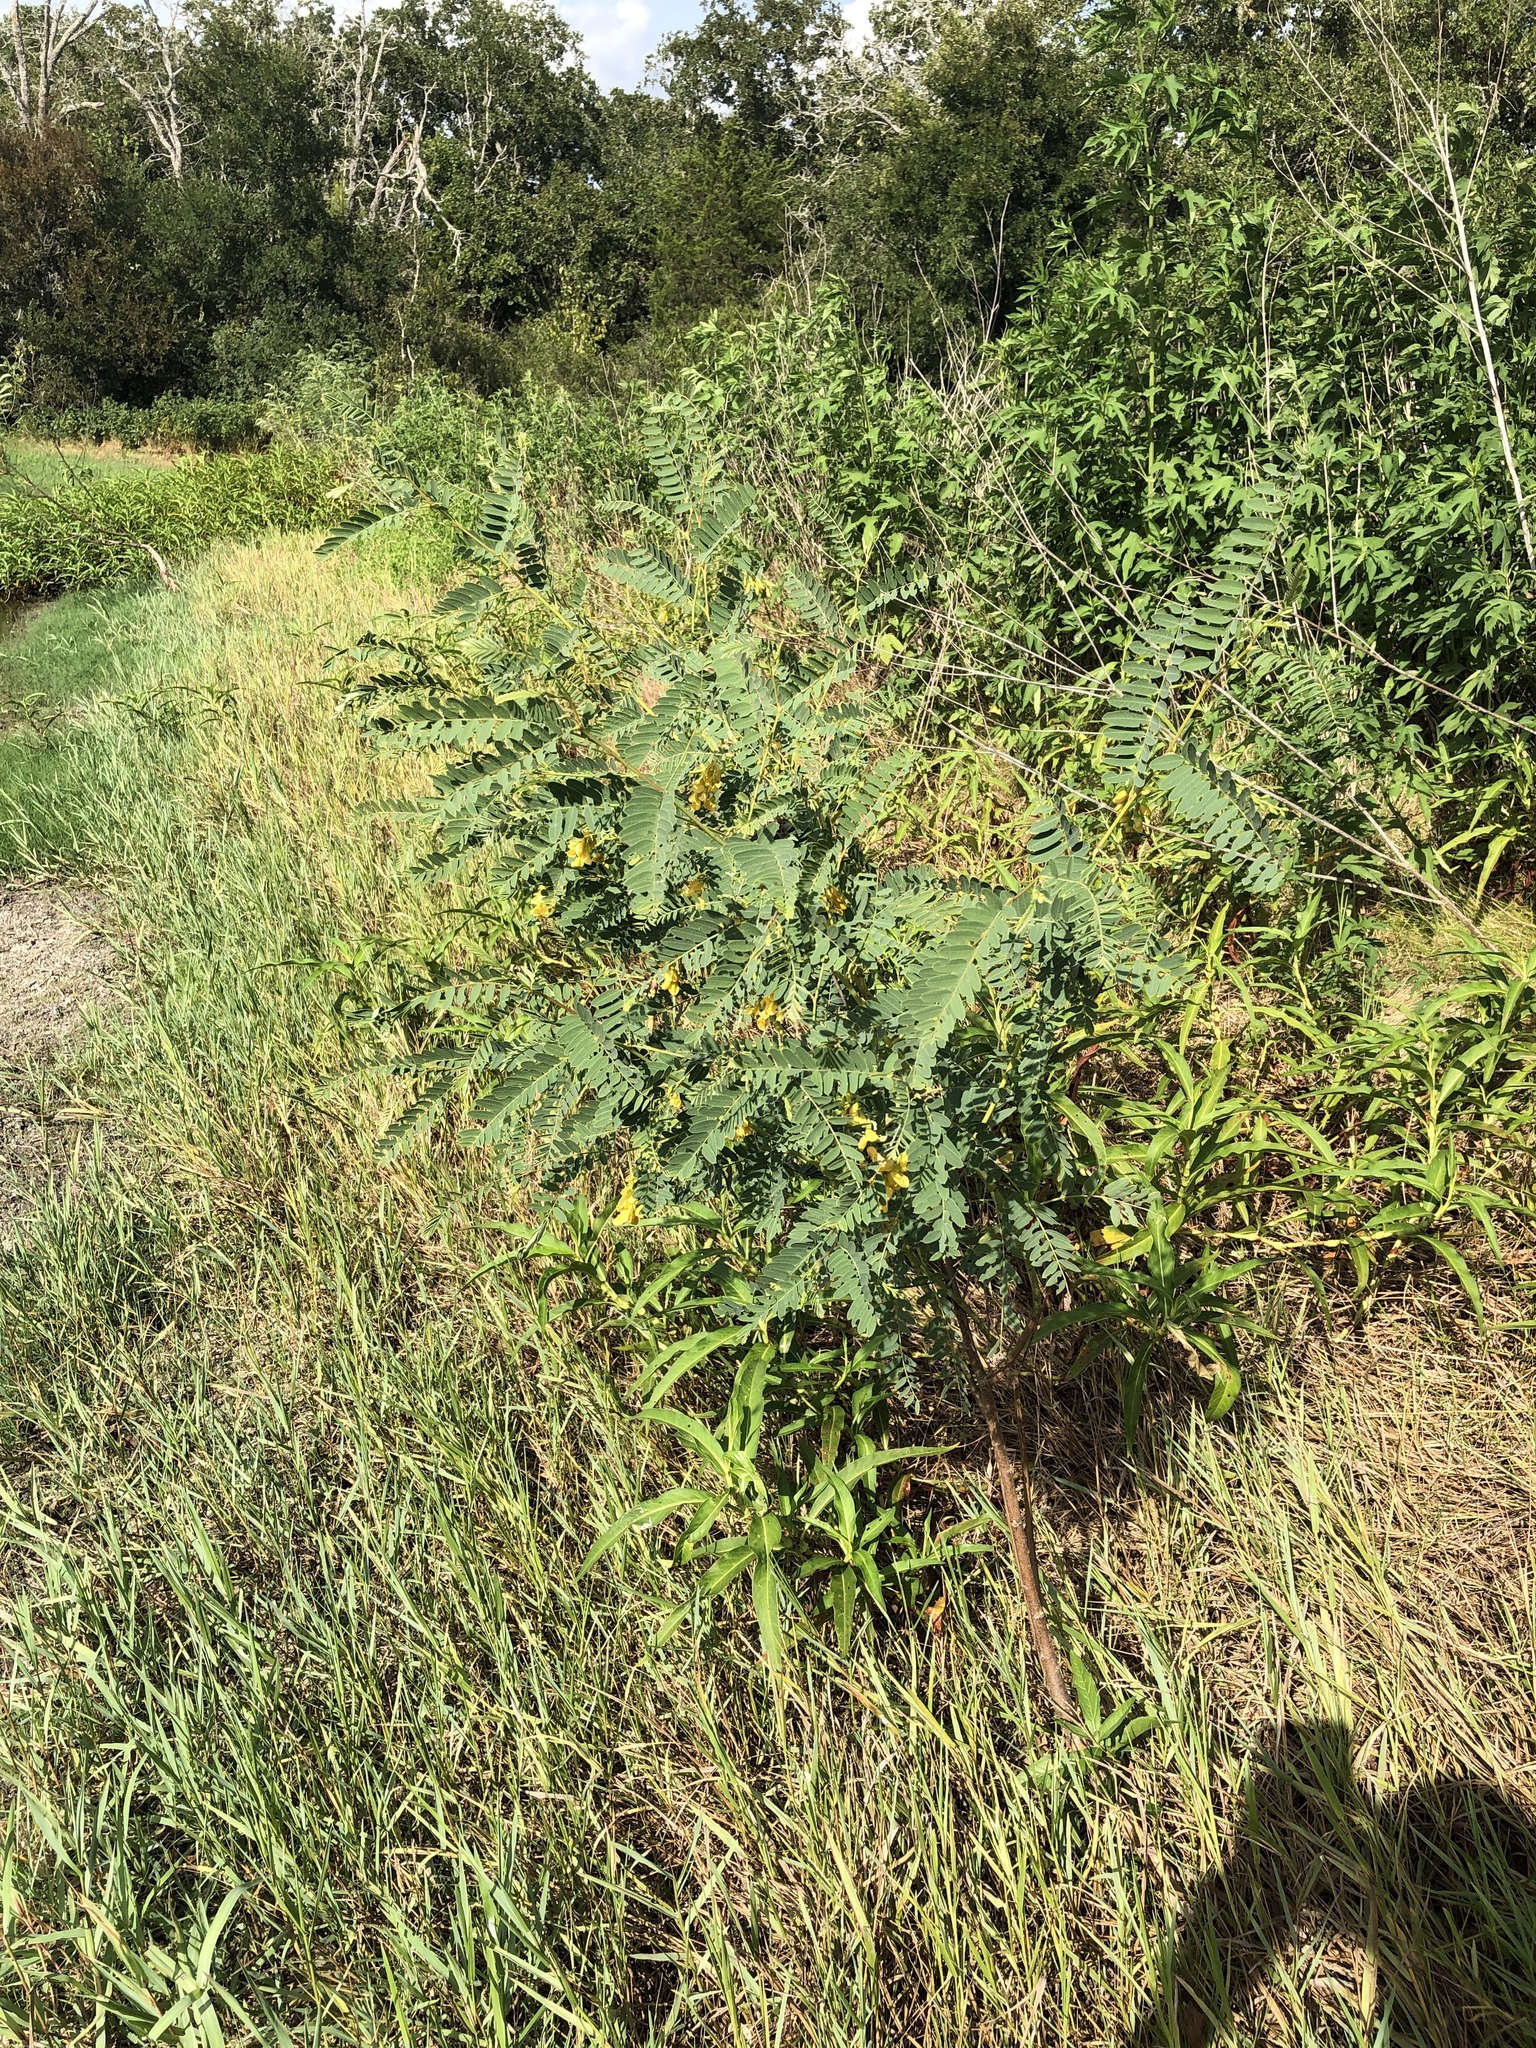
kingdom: Plantae
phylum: Tracheophyta
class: Magnoliopsida
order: Fabales
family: Fabaceae
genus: Sesbania
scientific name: Sesbania drummondii
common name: Poison-bean
